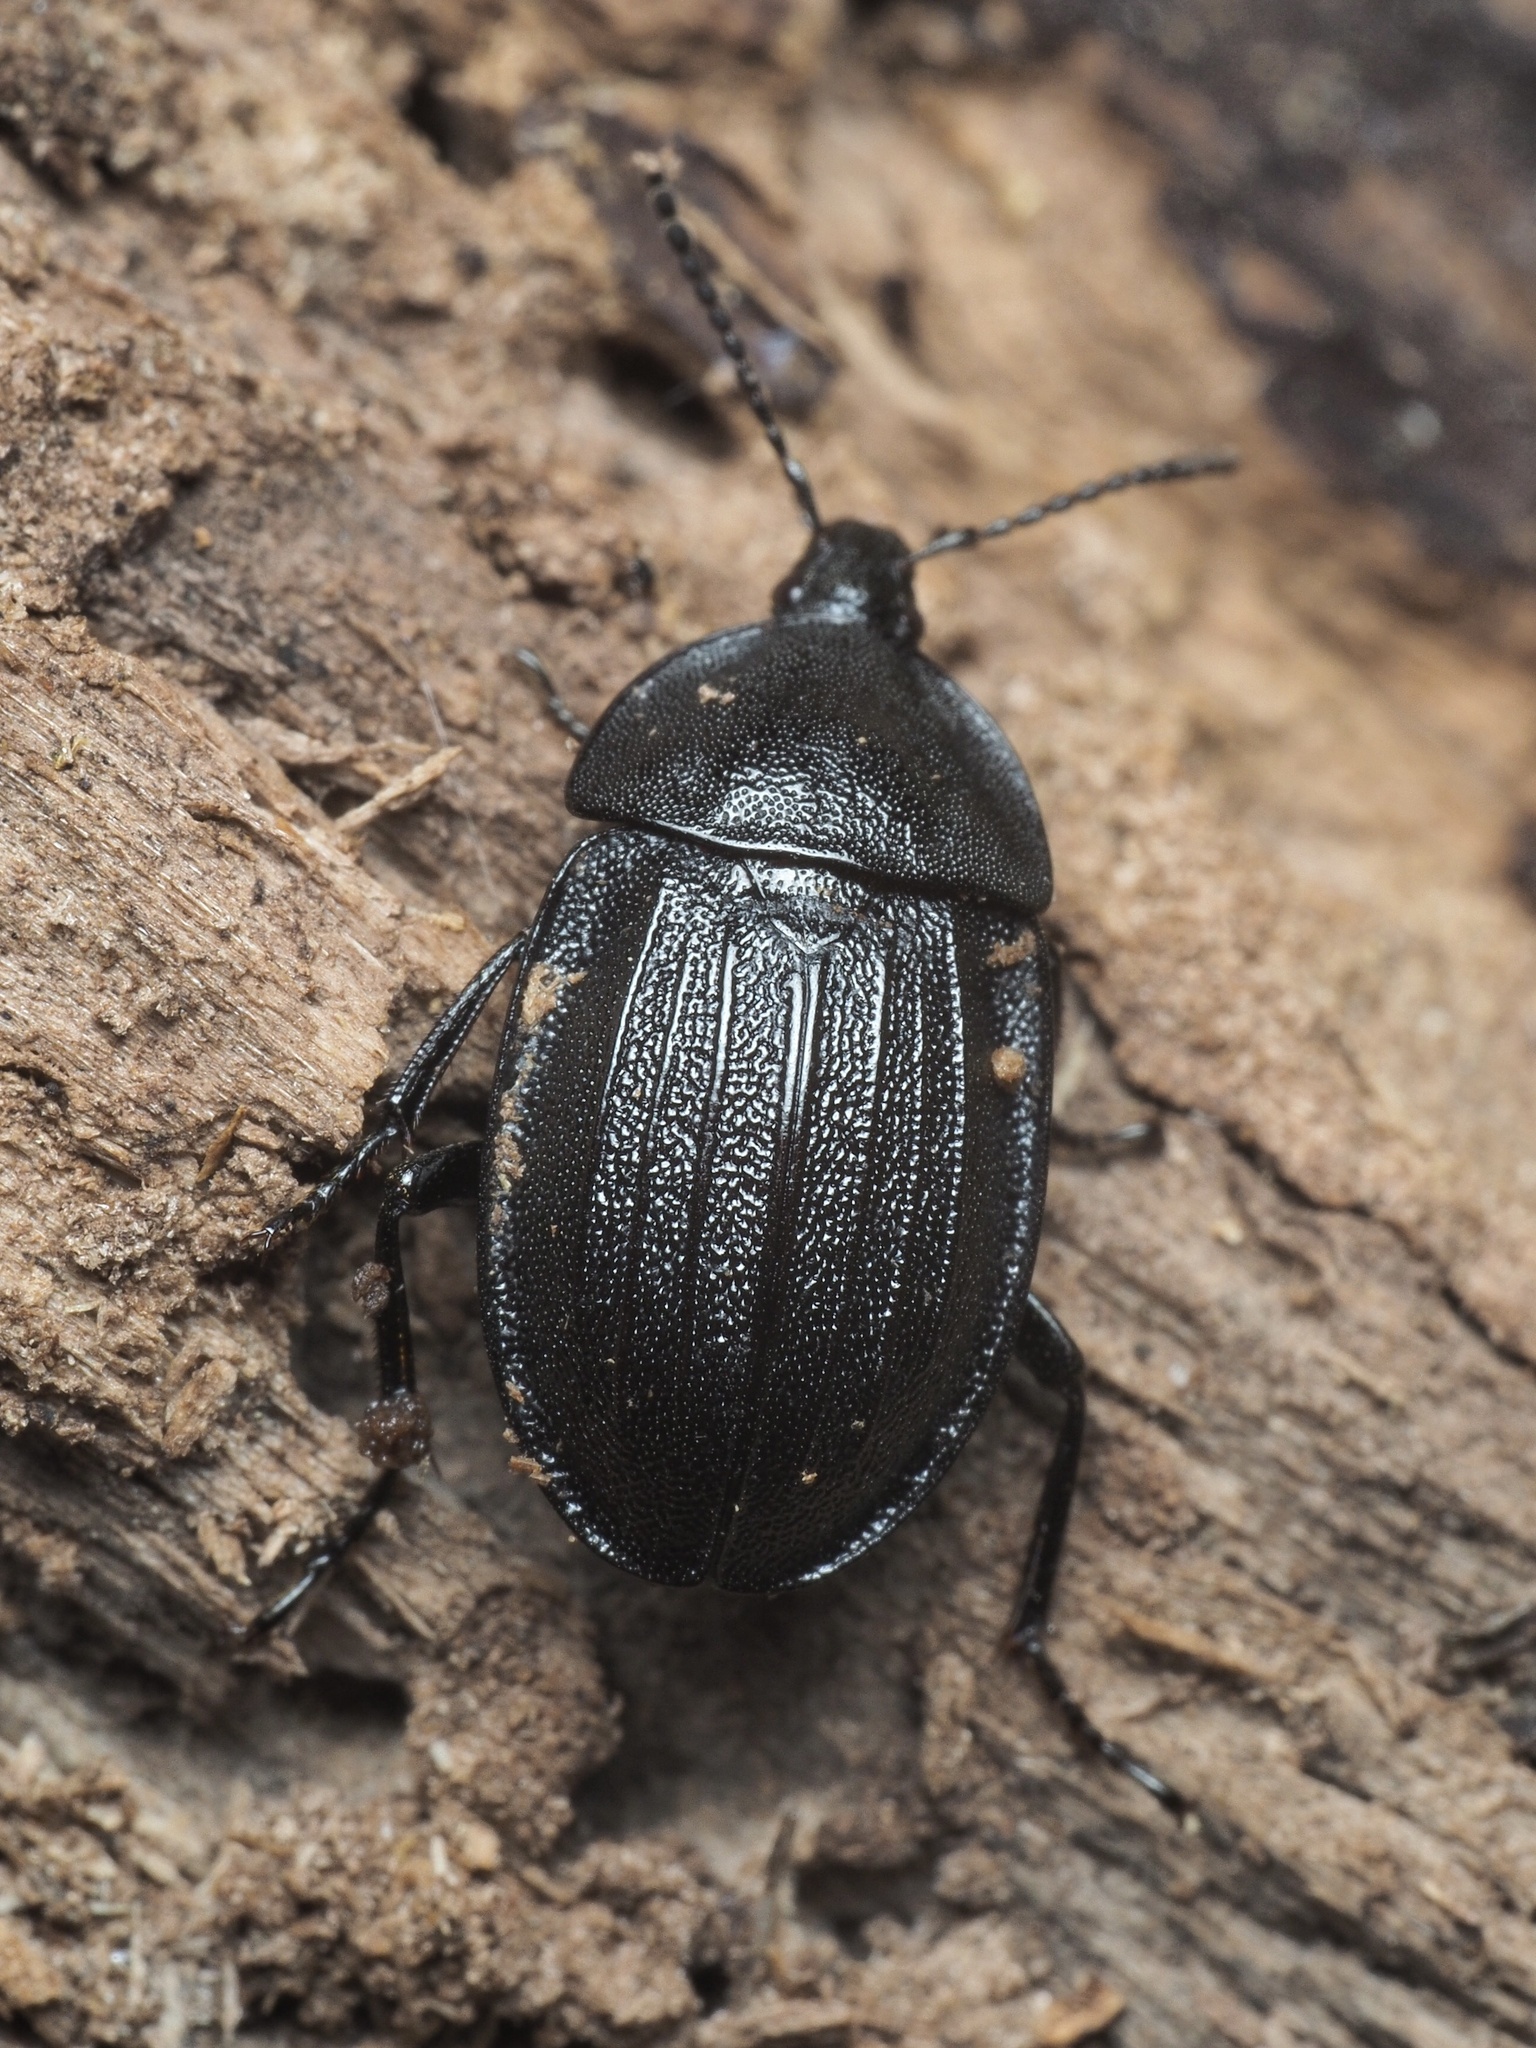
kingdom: Animalia
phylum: Arthropoda
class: Insecta
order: Coleoptera
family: Staphylinidae
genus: Silpha
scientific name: Silpha atrata
